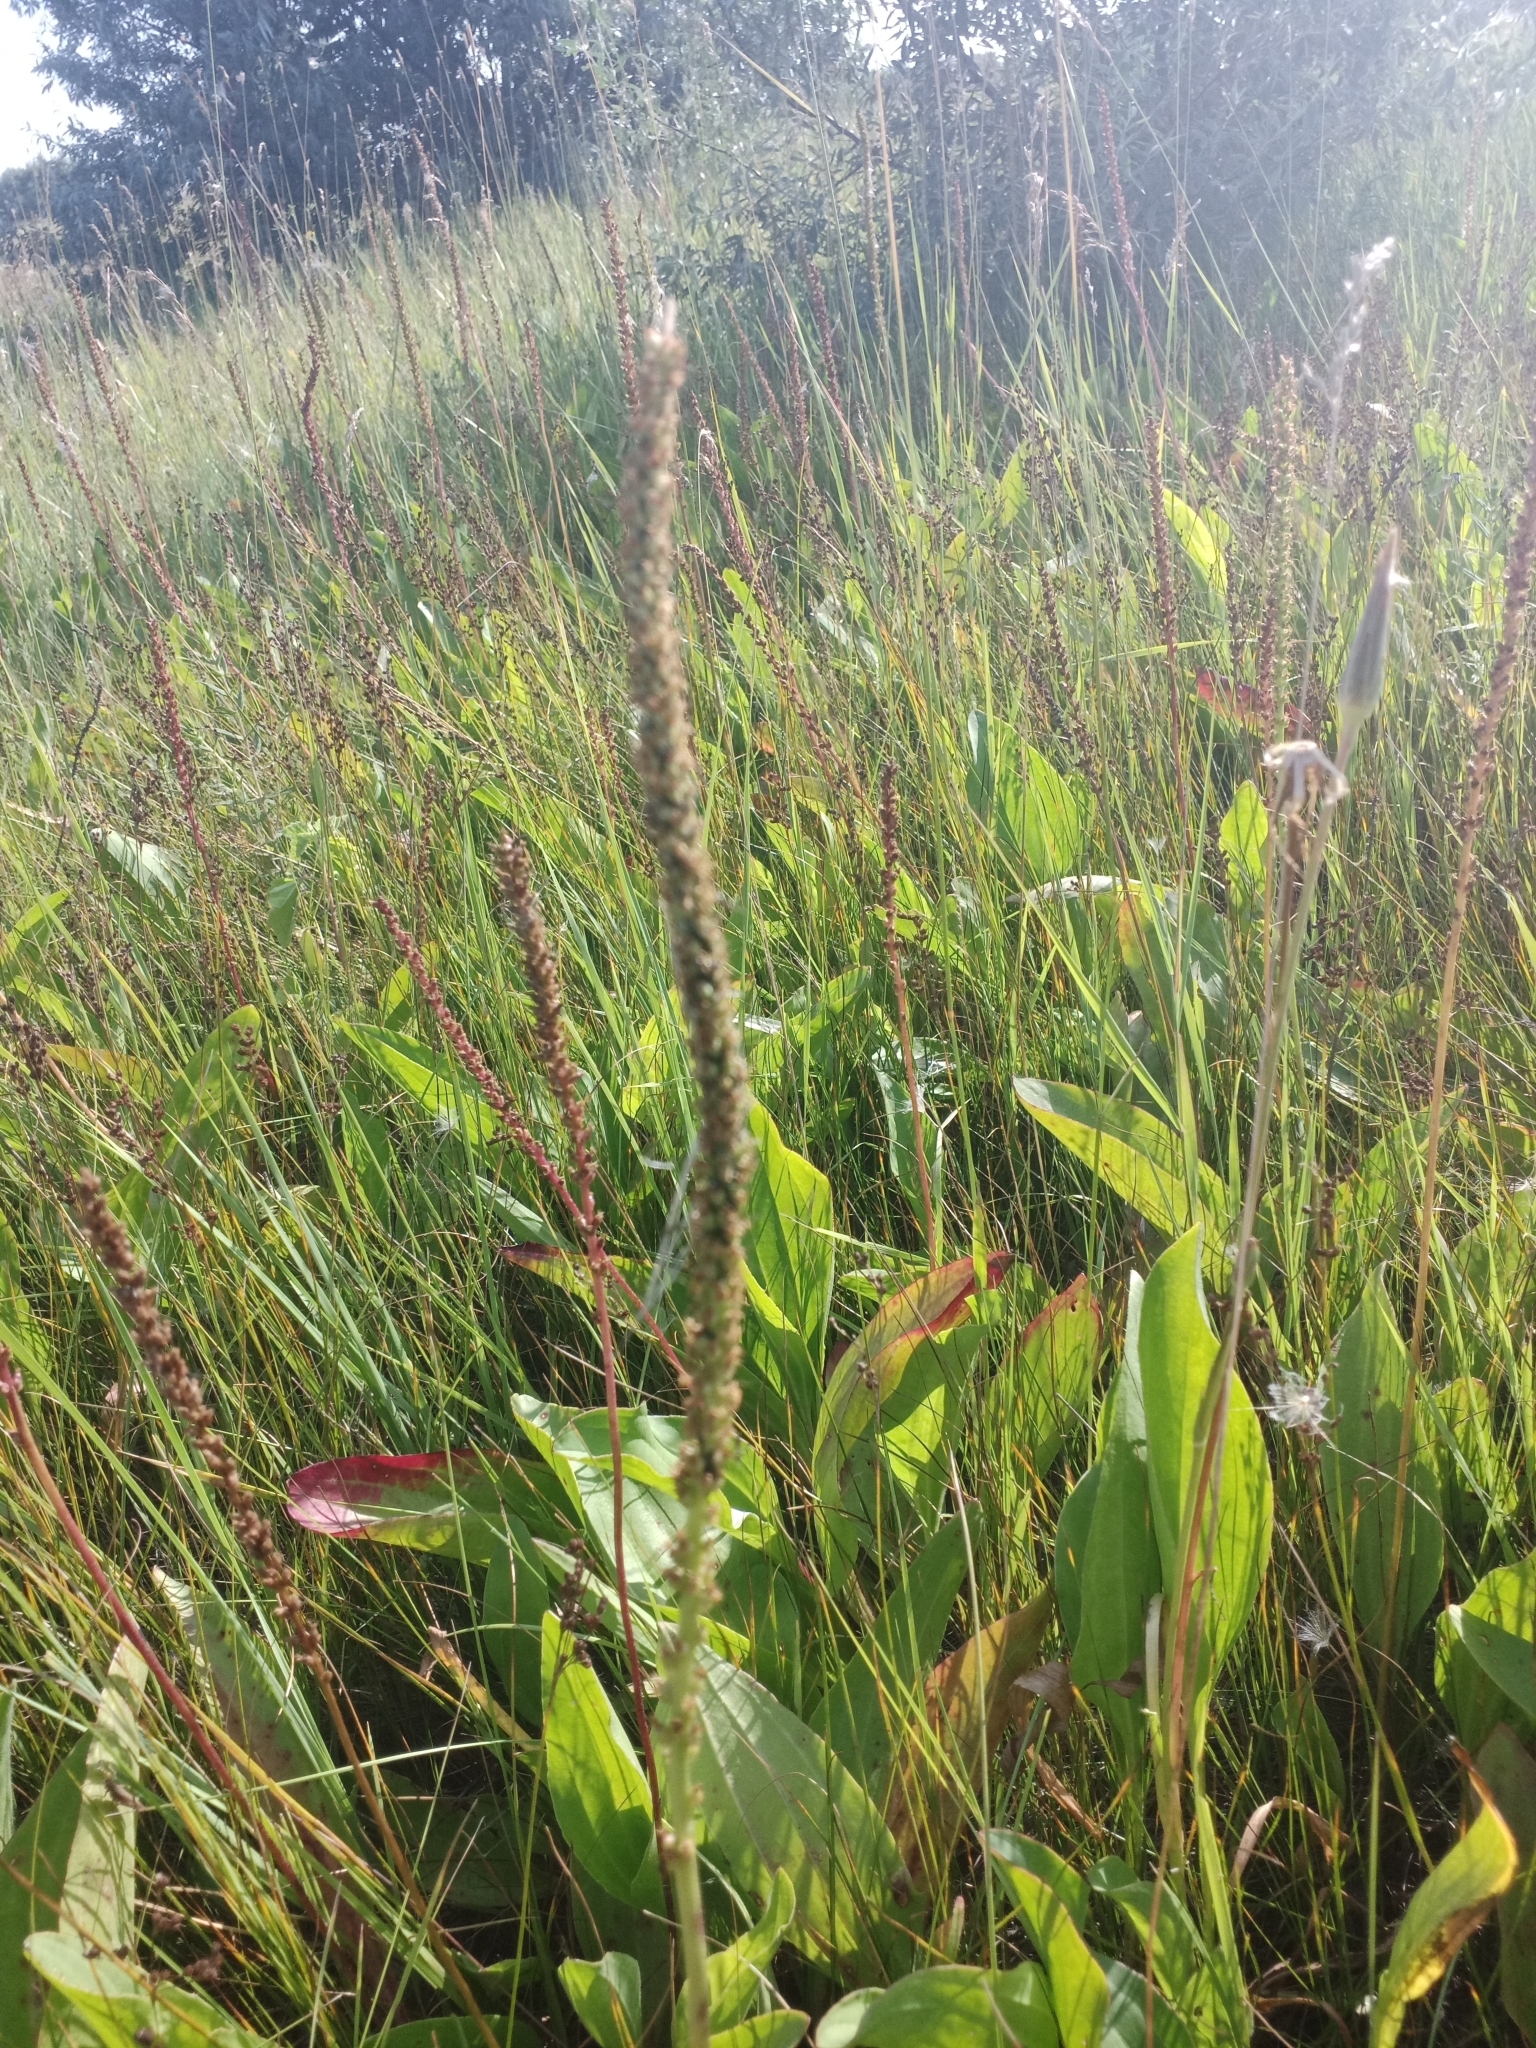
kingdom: Plantae
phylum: Tracheophyta
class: Magnoliopsida
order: Lamiales
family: Plantaginaceae
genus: Plantago
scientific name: Plantago cornuti
